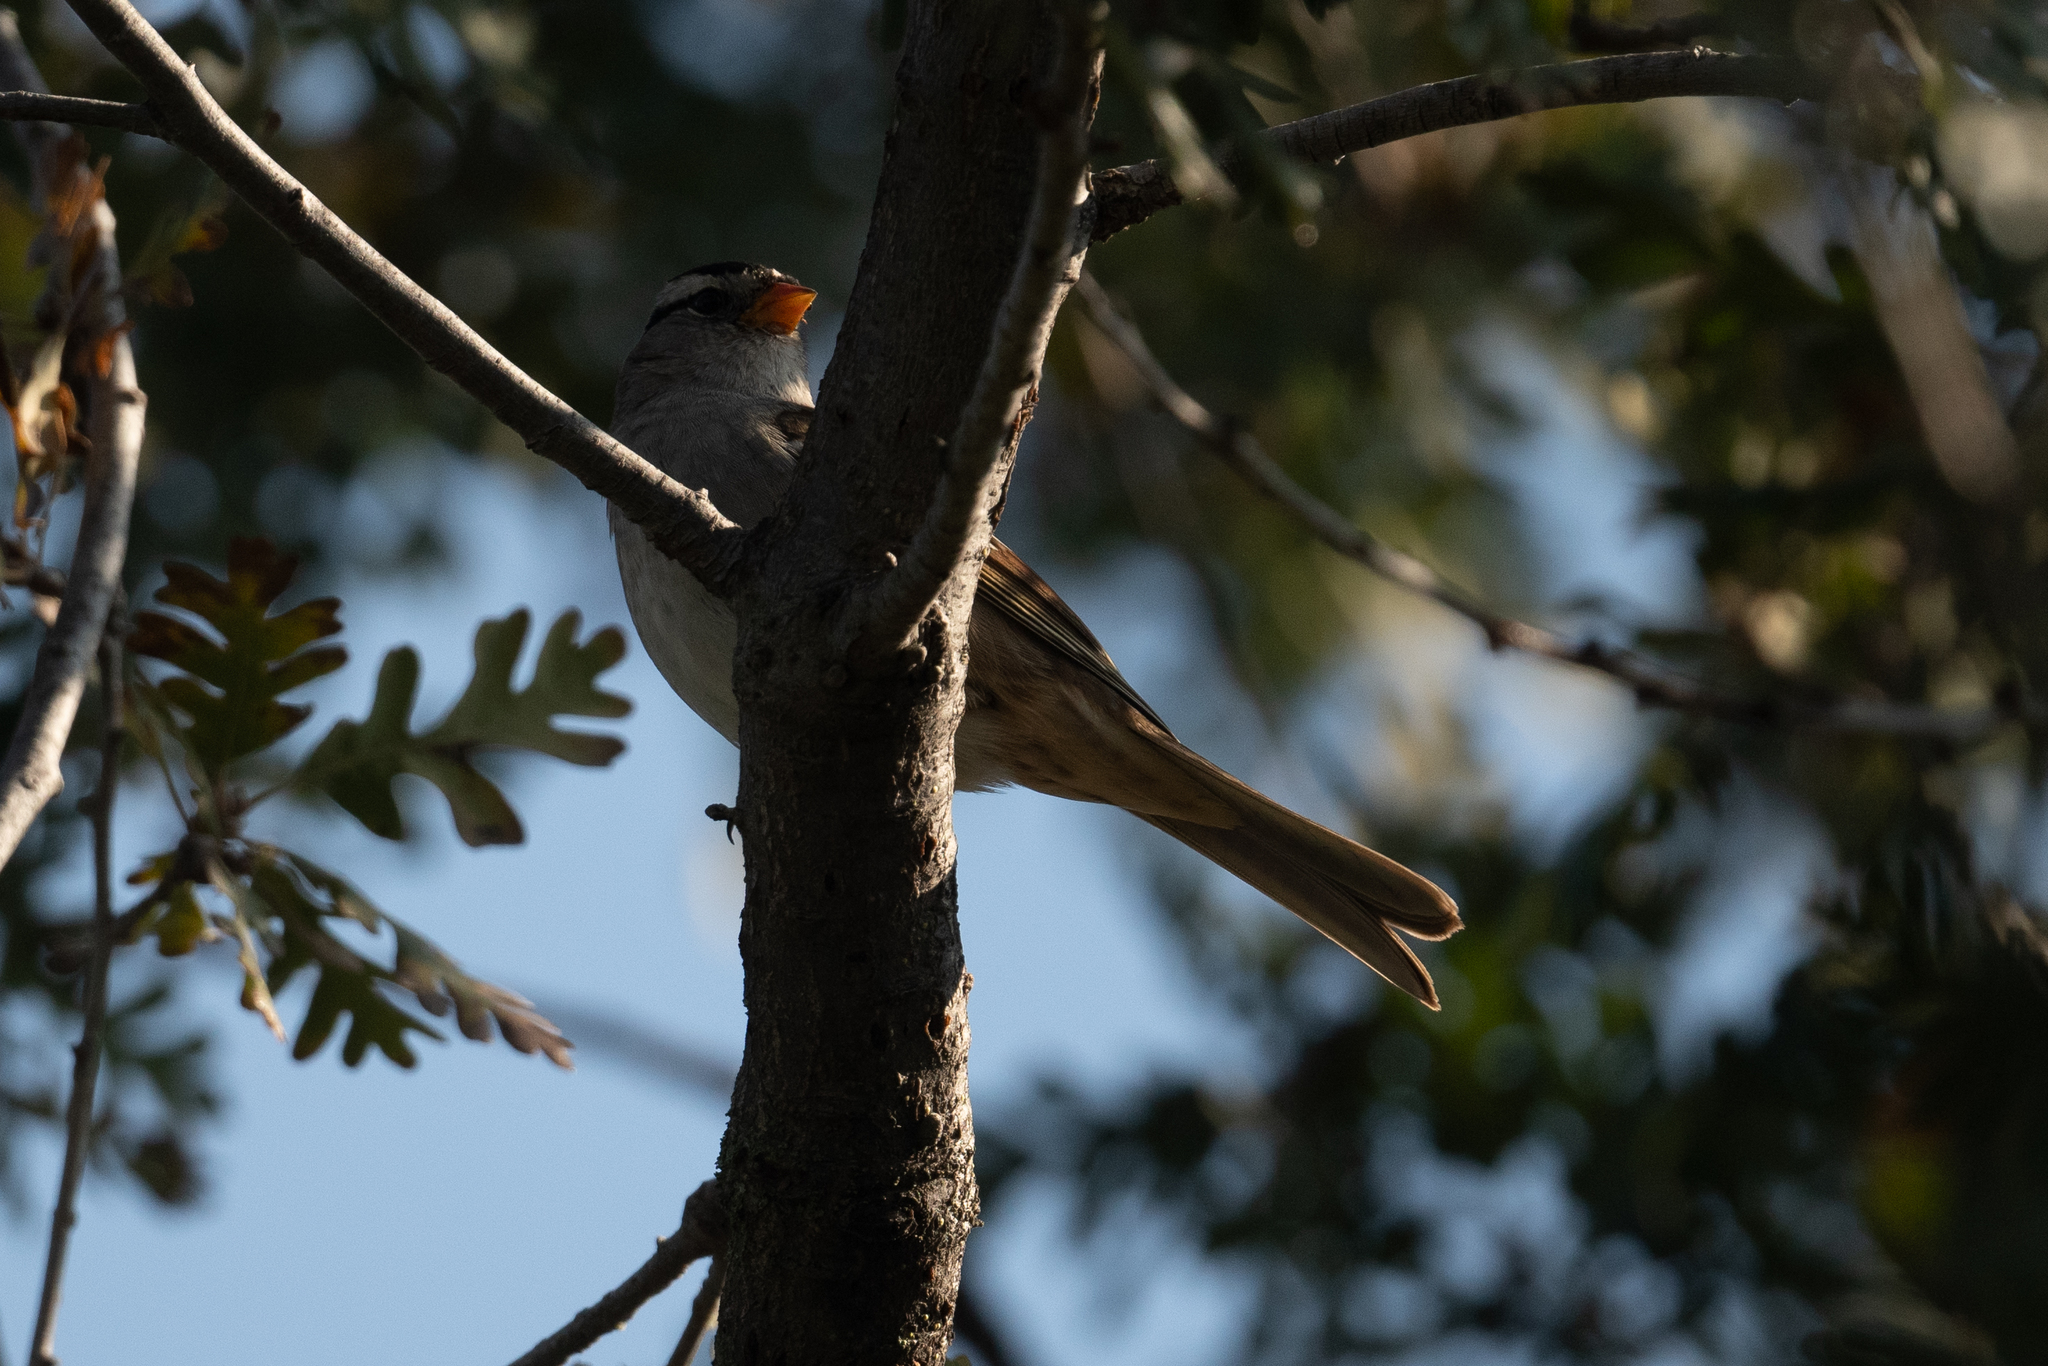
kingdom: Animalia
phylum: Chordata
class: Aves
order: Passeriformes
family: Passerellidae
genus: Zonotrichia
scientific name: Zonotrichia leucophrys
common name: White-crowned sparrow
